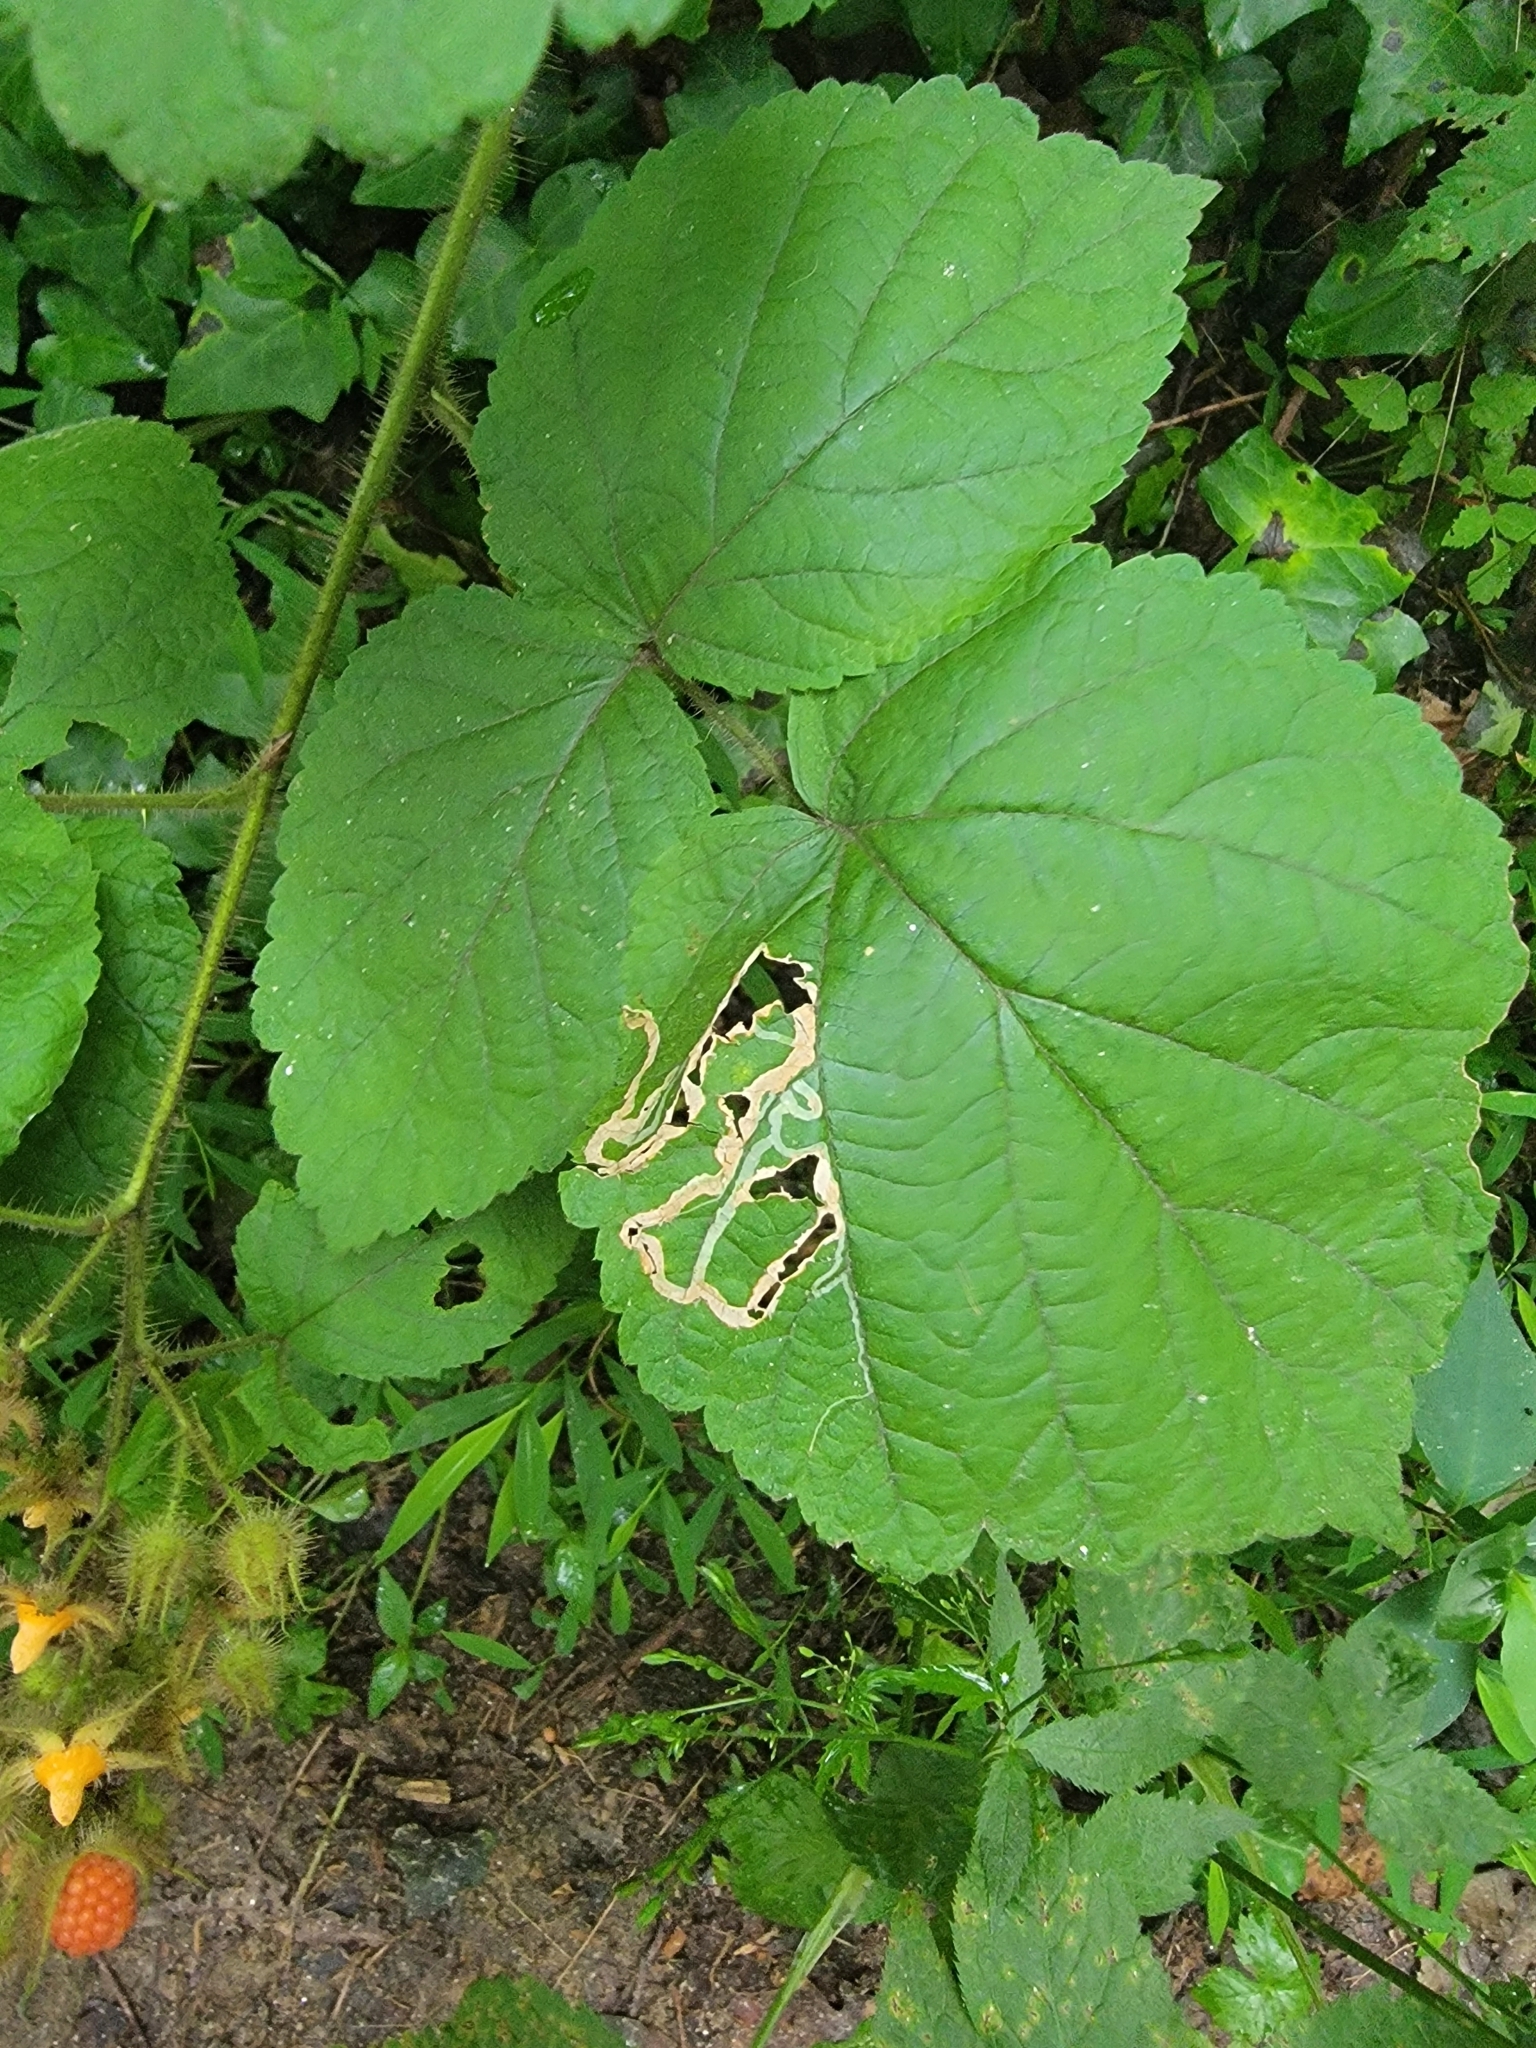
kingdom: Animalia
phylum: Arthropoda
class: Insecta
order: Diptera
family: Agromyzidae
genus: Agromyza
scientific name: Agromyza vockerothi
